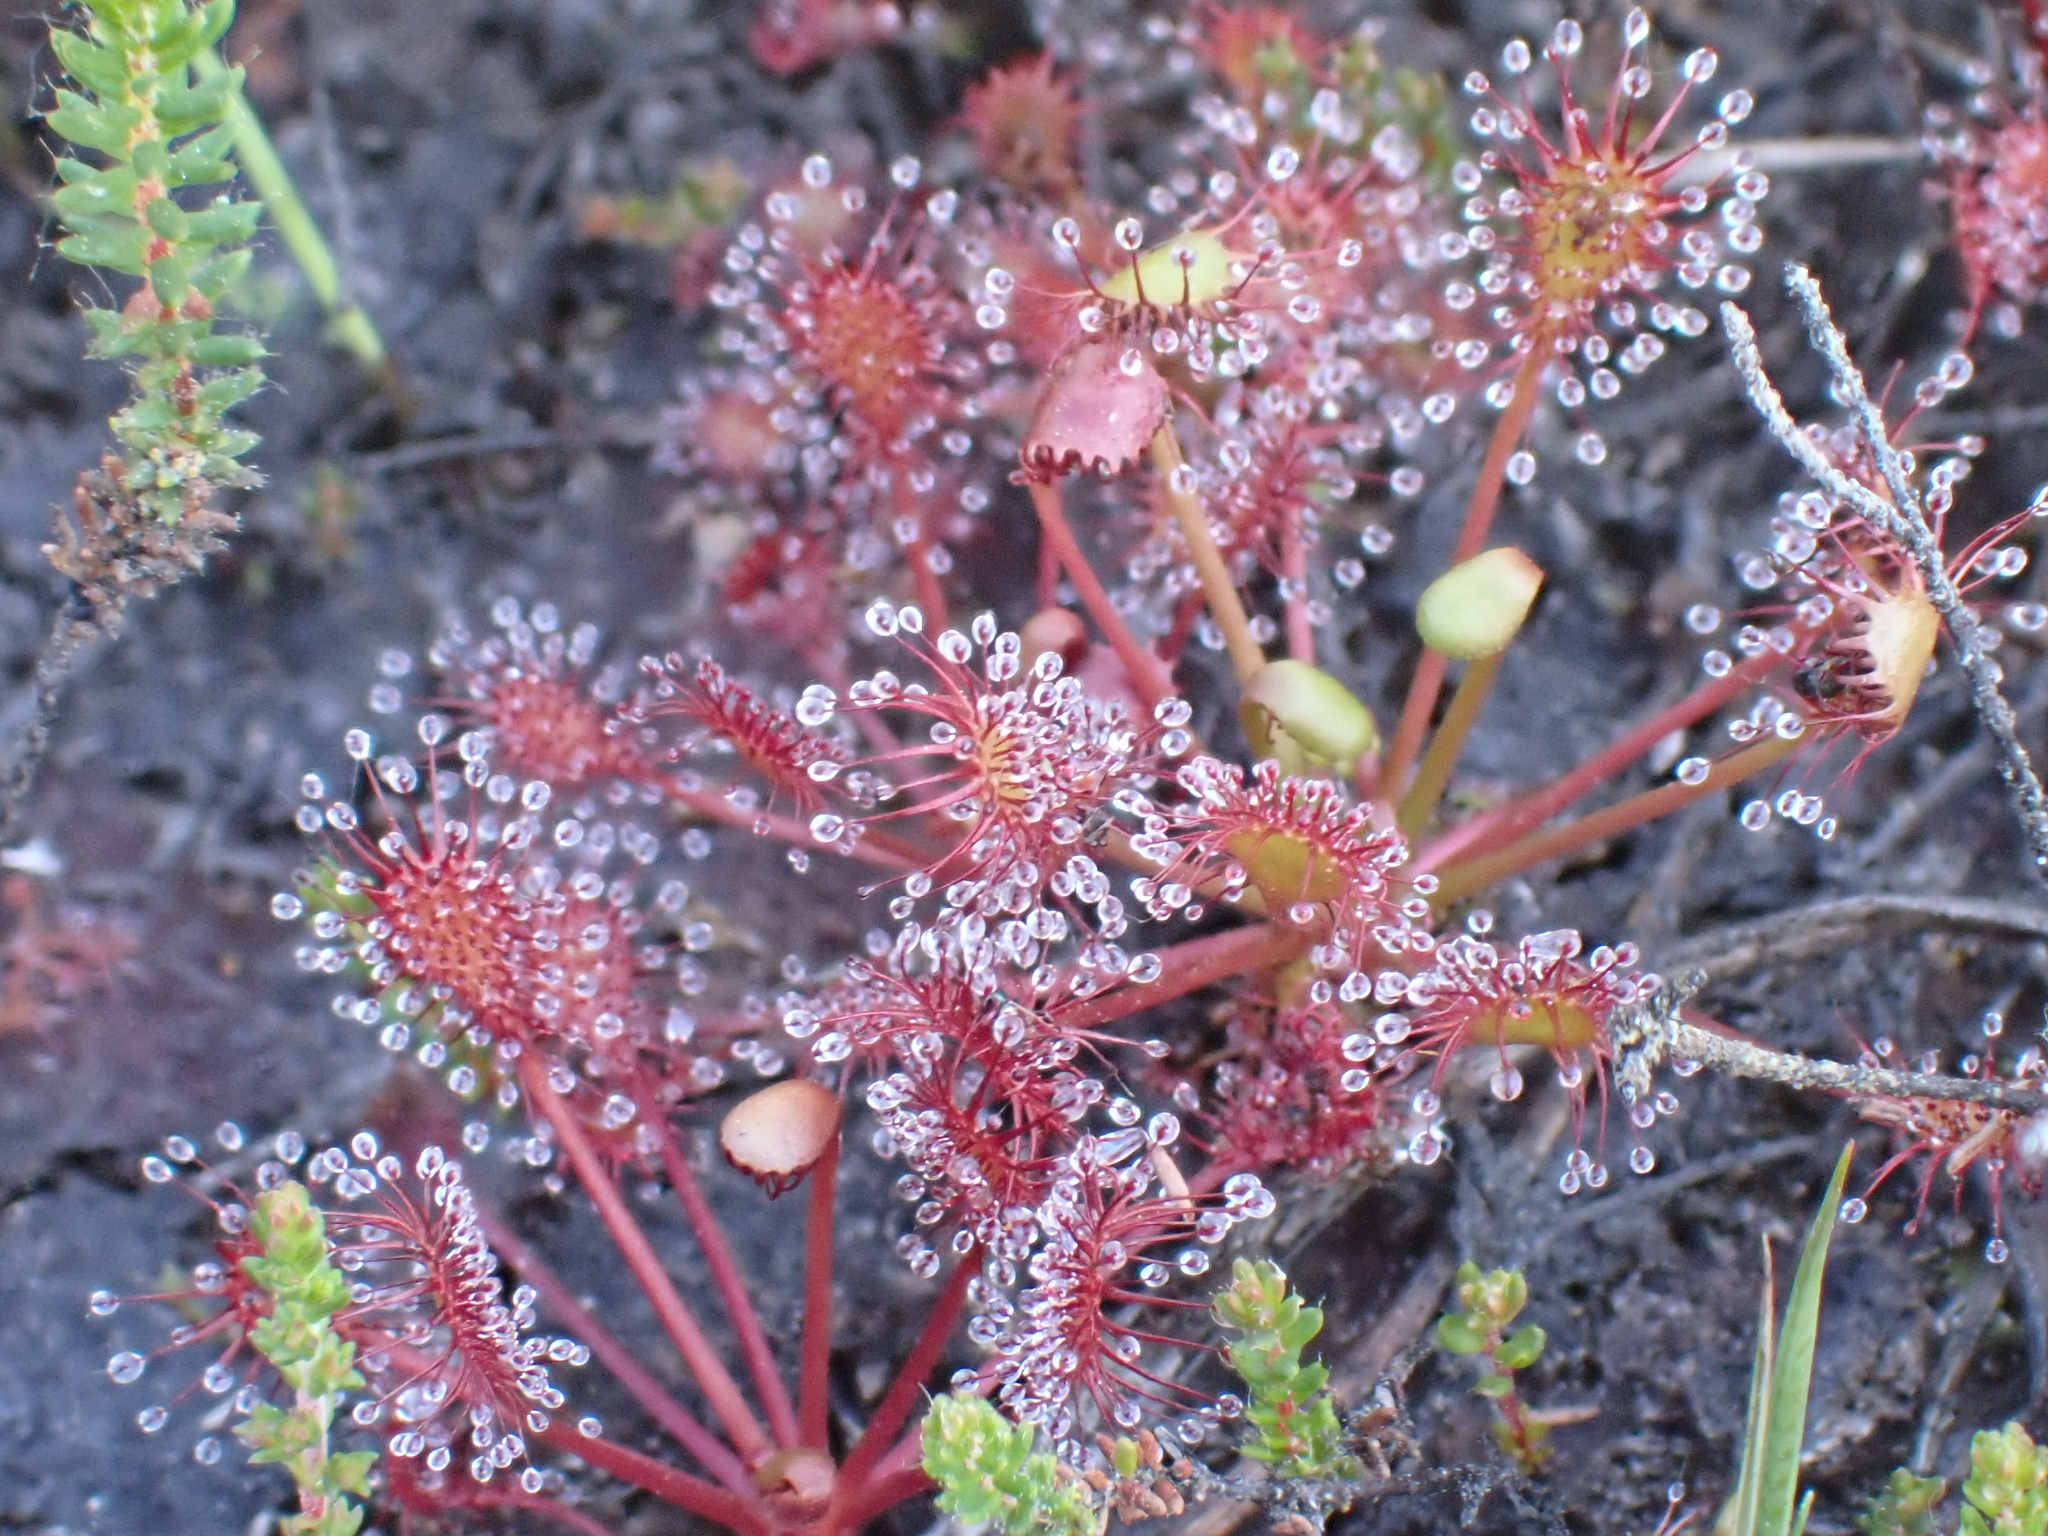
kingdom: Plantae
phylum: Tracheophyta
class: Magnoliopsida
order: Caryophyllales
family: Droseraceae
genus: Drosera
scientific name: Drosera intermedia
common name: Oblong-leaved sundew
